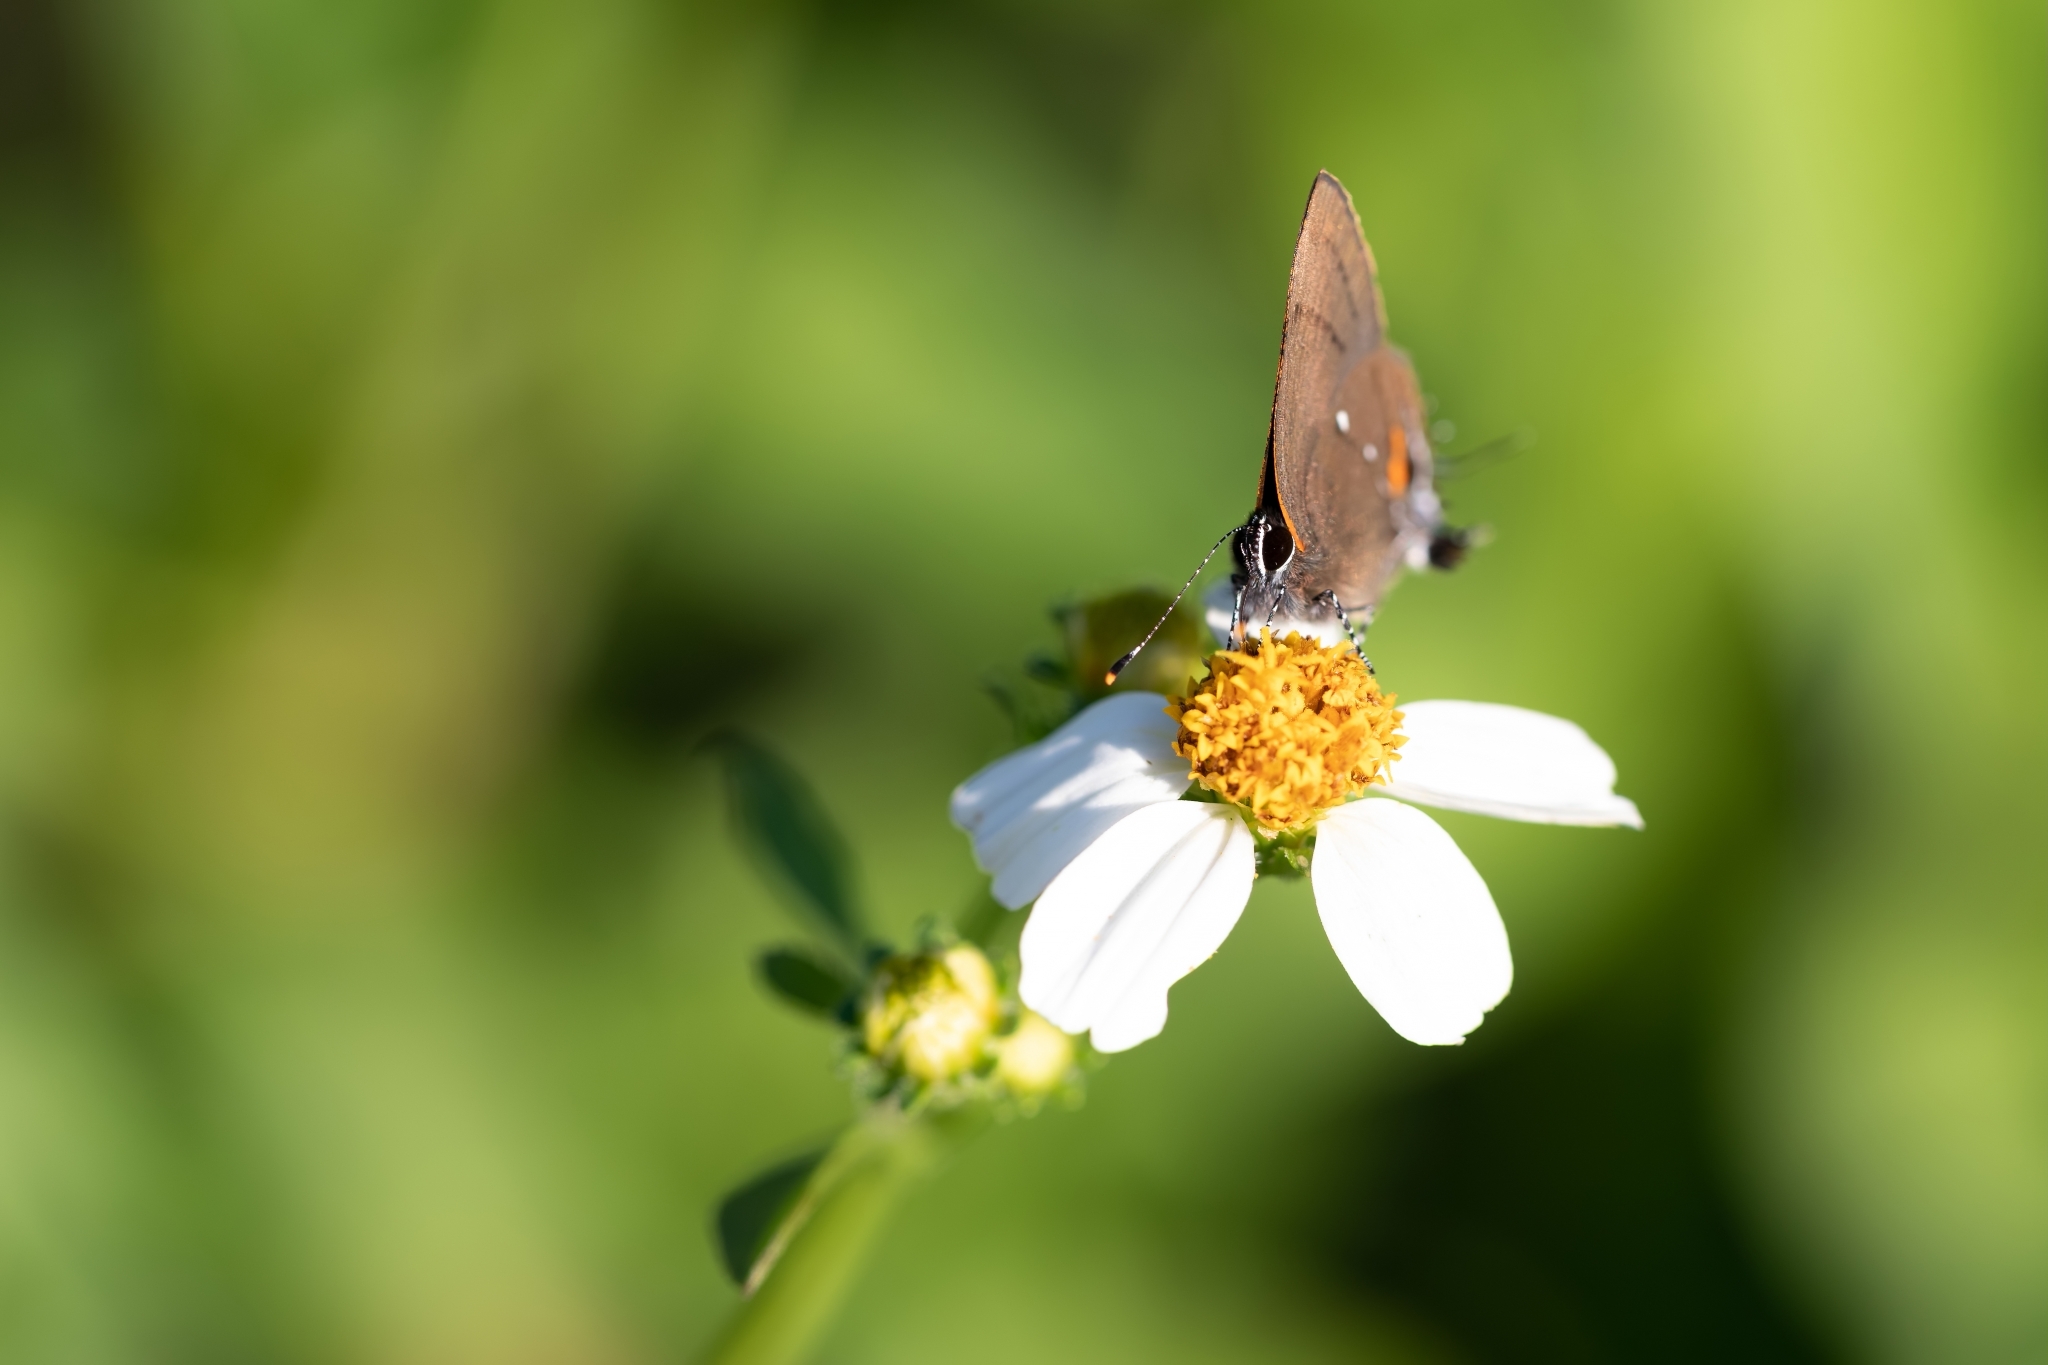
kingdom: Animalia
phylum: Arthropoda
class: Insecta
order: Lepidoptera
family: Lycaenidae
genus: Thecla
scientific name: Thecla angelia
